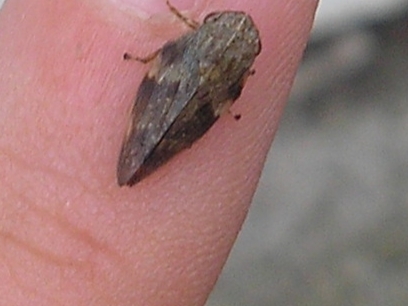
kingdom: Animalia
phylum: Arthropoda
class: Insecta
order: Hemiptera
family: Aphrophoridae
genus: Aphrophora
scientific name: Aphrophora alni
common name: European alder spittlebug
